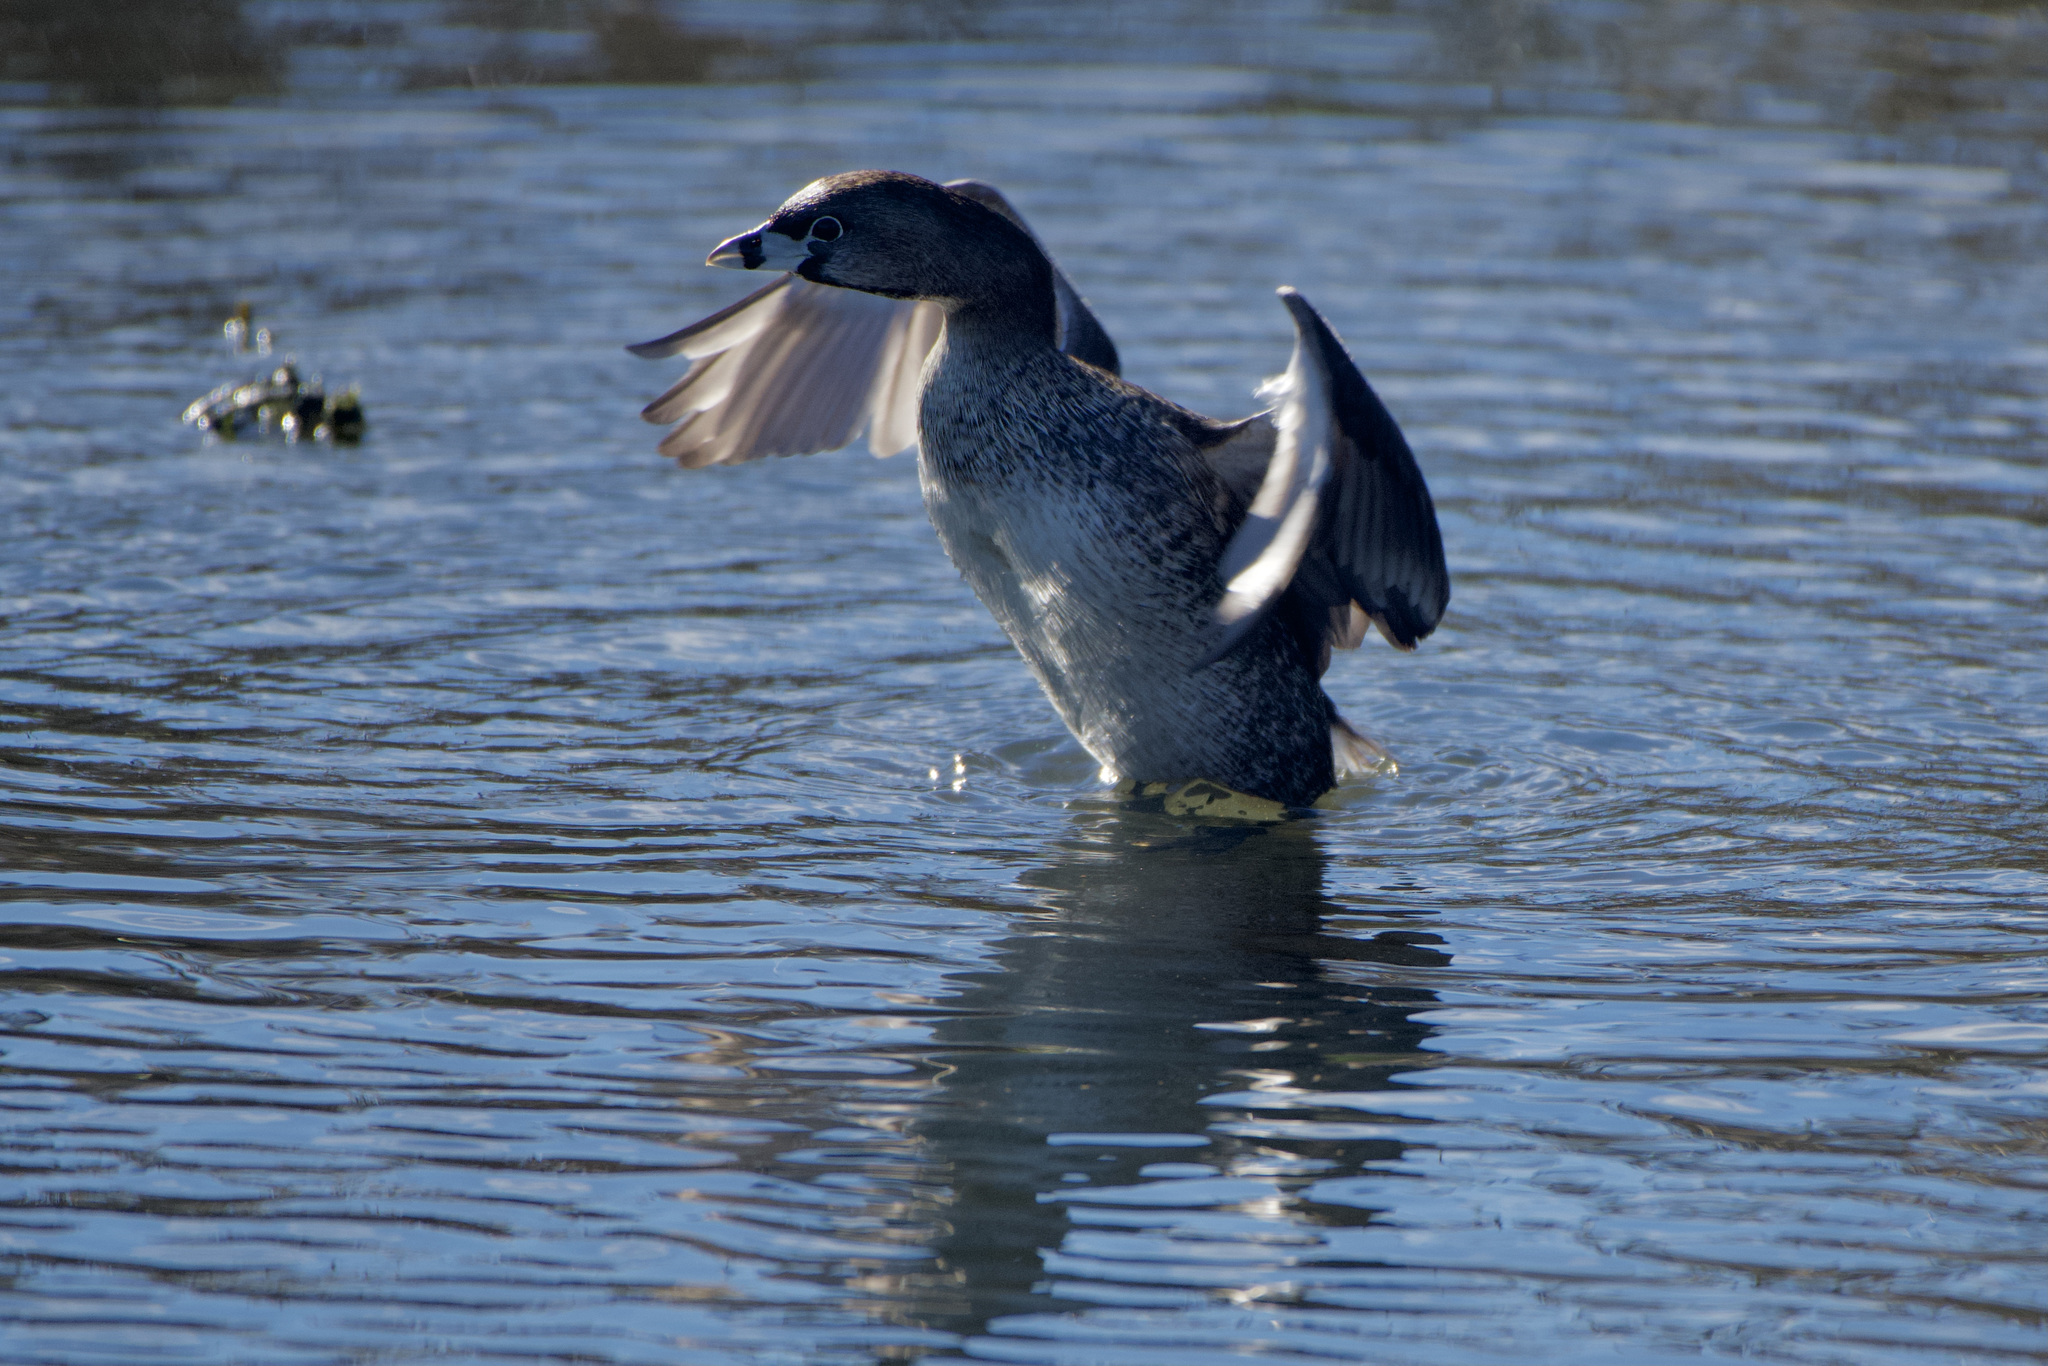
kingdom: Animalia
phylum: Chordata
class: Aves
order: Podicipediformes
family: Podicipedidae
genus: Podilymbus
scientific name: Podilymbus podiceps
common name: Pied-billed grebe
